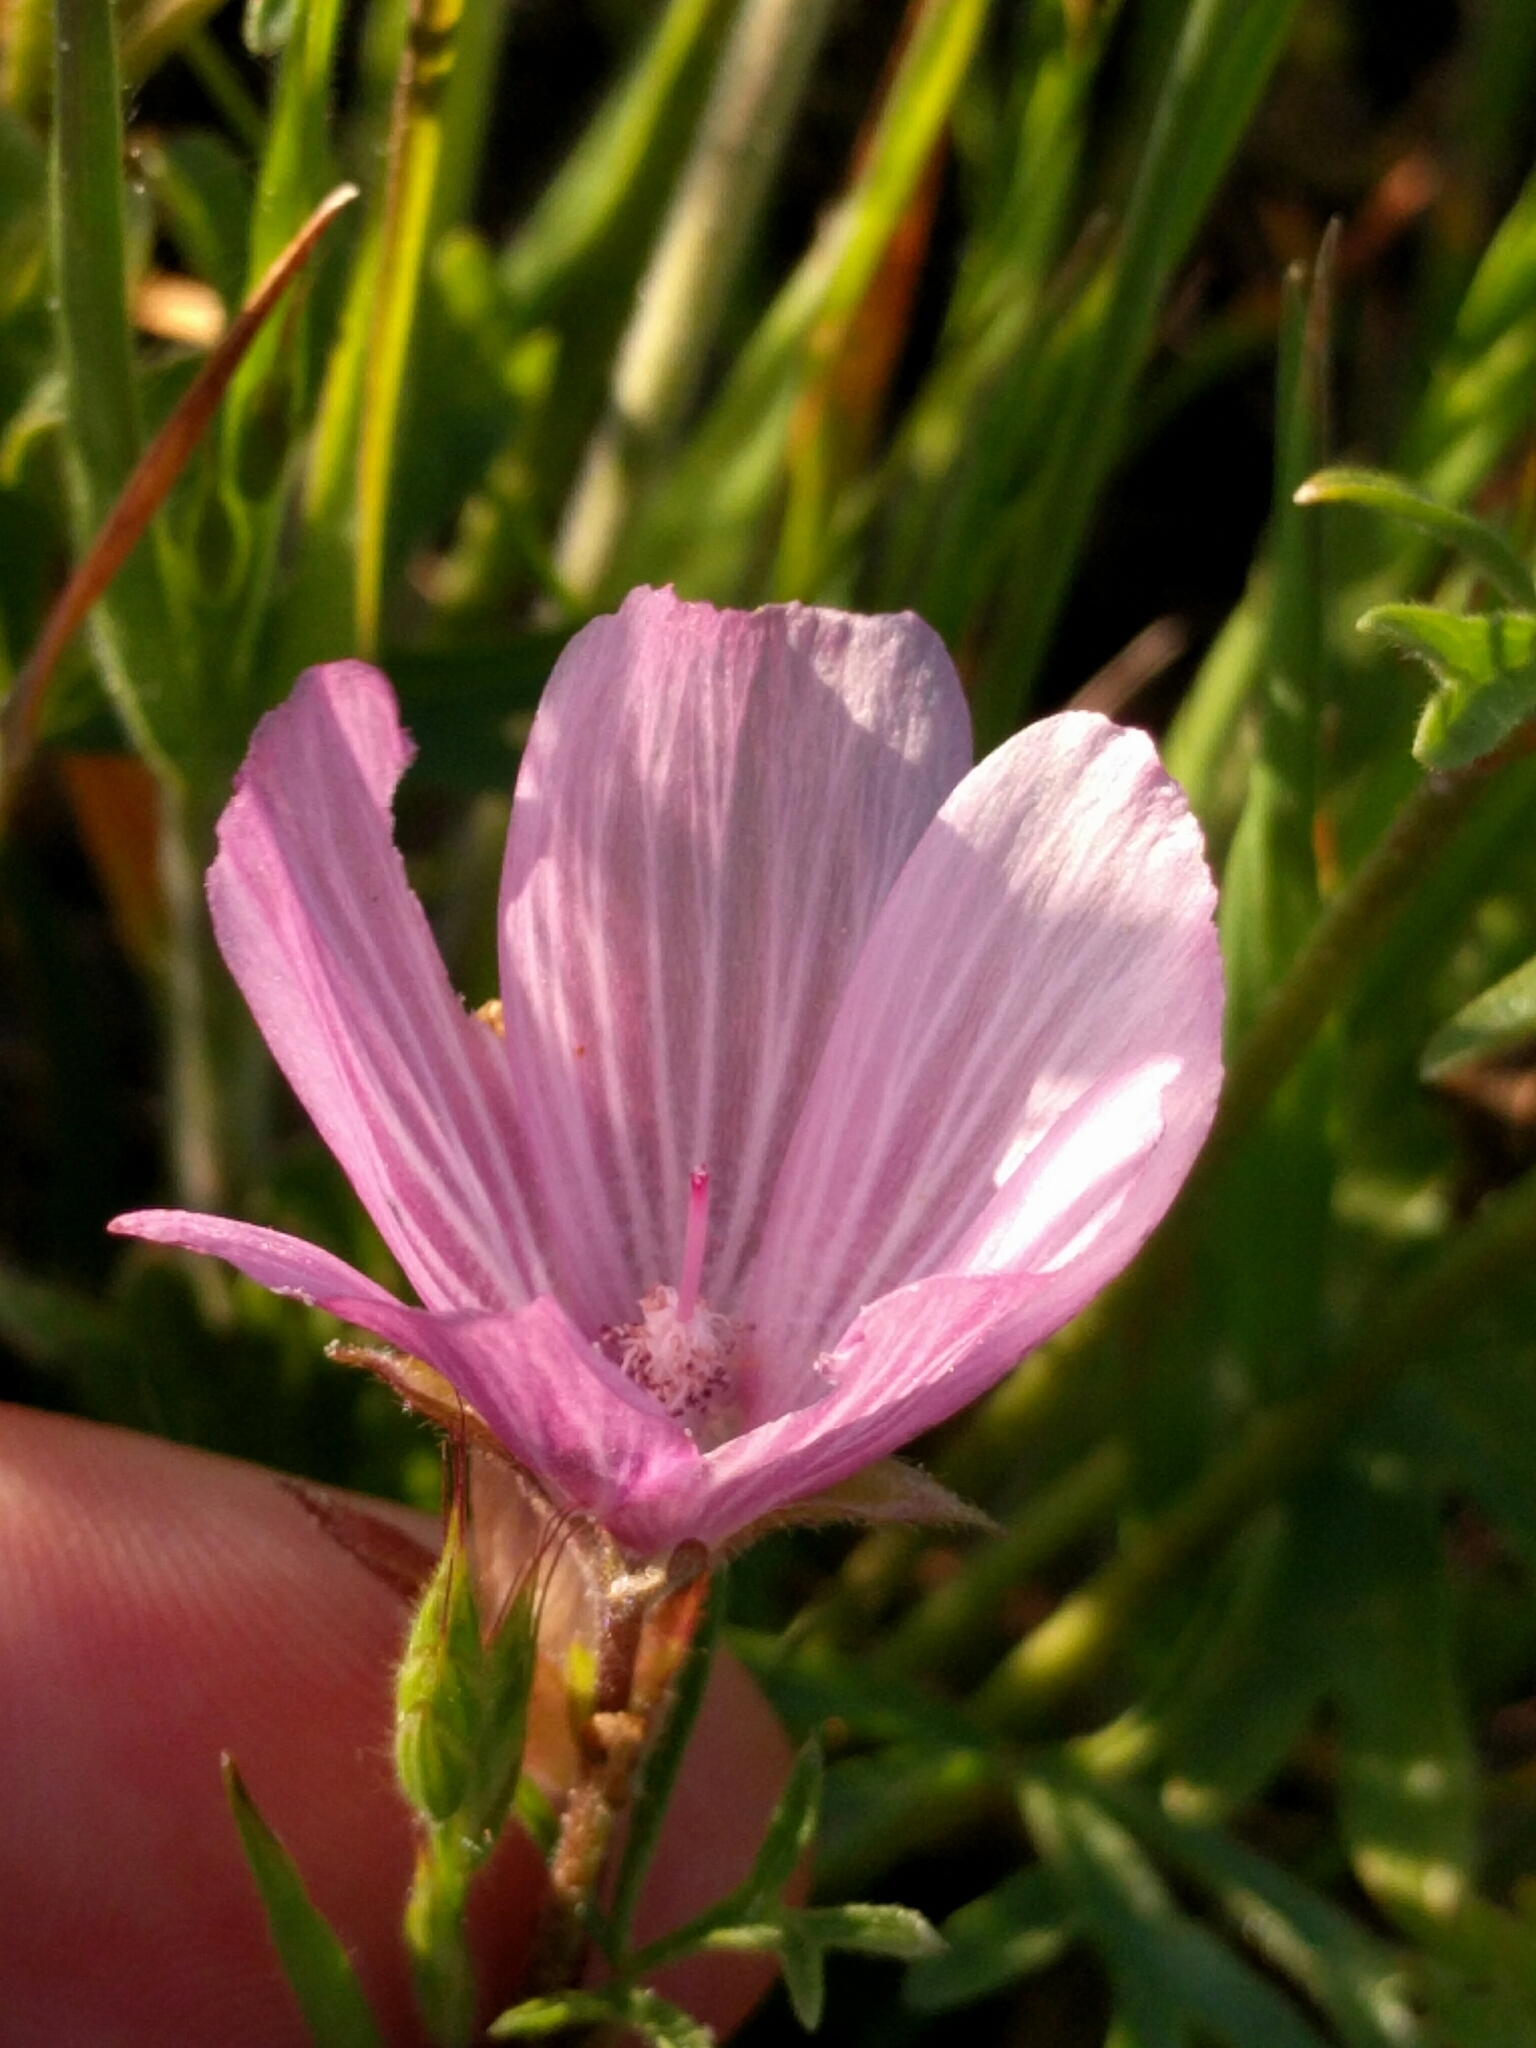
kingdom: Plantae
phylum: Tracheophyta
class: Magnoliopsida
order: Malvales
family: Malvaceae
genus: Sidalcea
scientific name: Sidalcea malviflora
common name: Greek mallow
